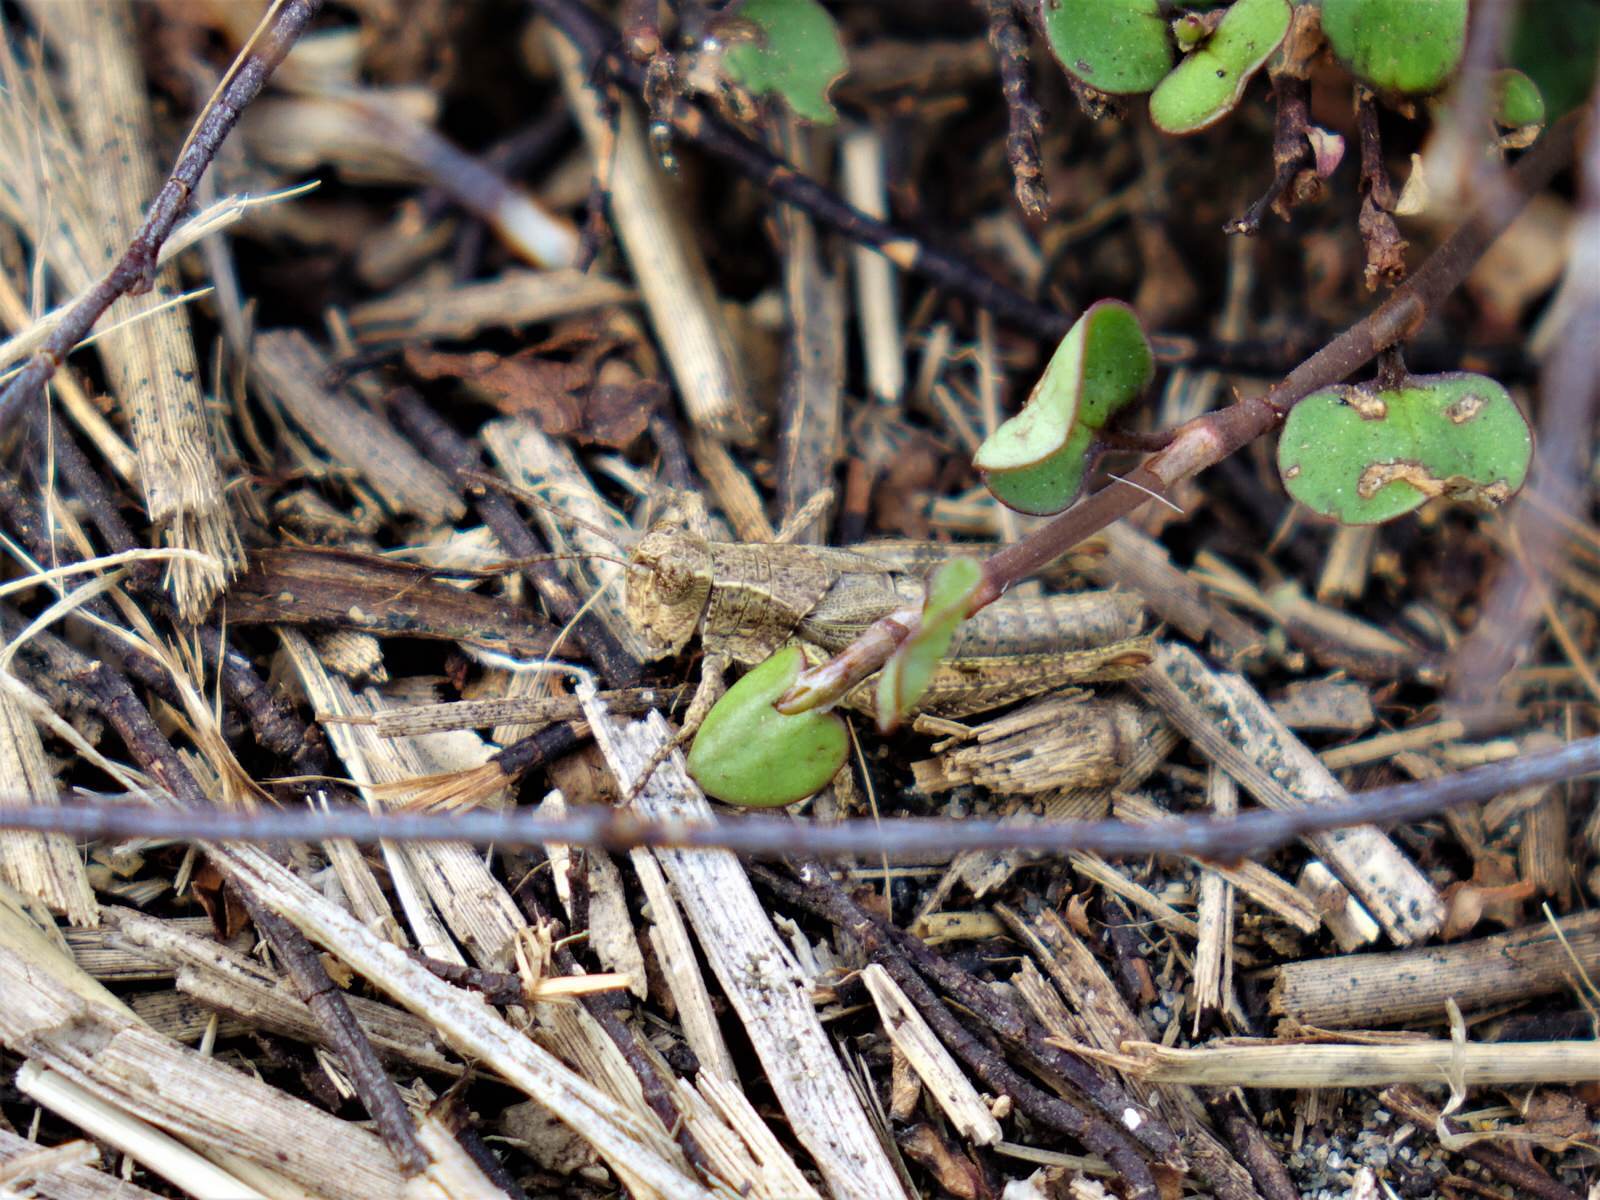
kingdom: Animalia
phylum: Arthropoda
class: Insecta
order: Orthoptera
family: Acrididae
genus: Phaulacridium
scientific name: Phaulacridium marginale
